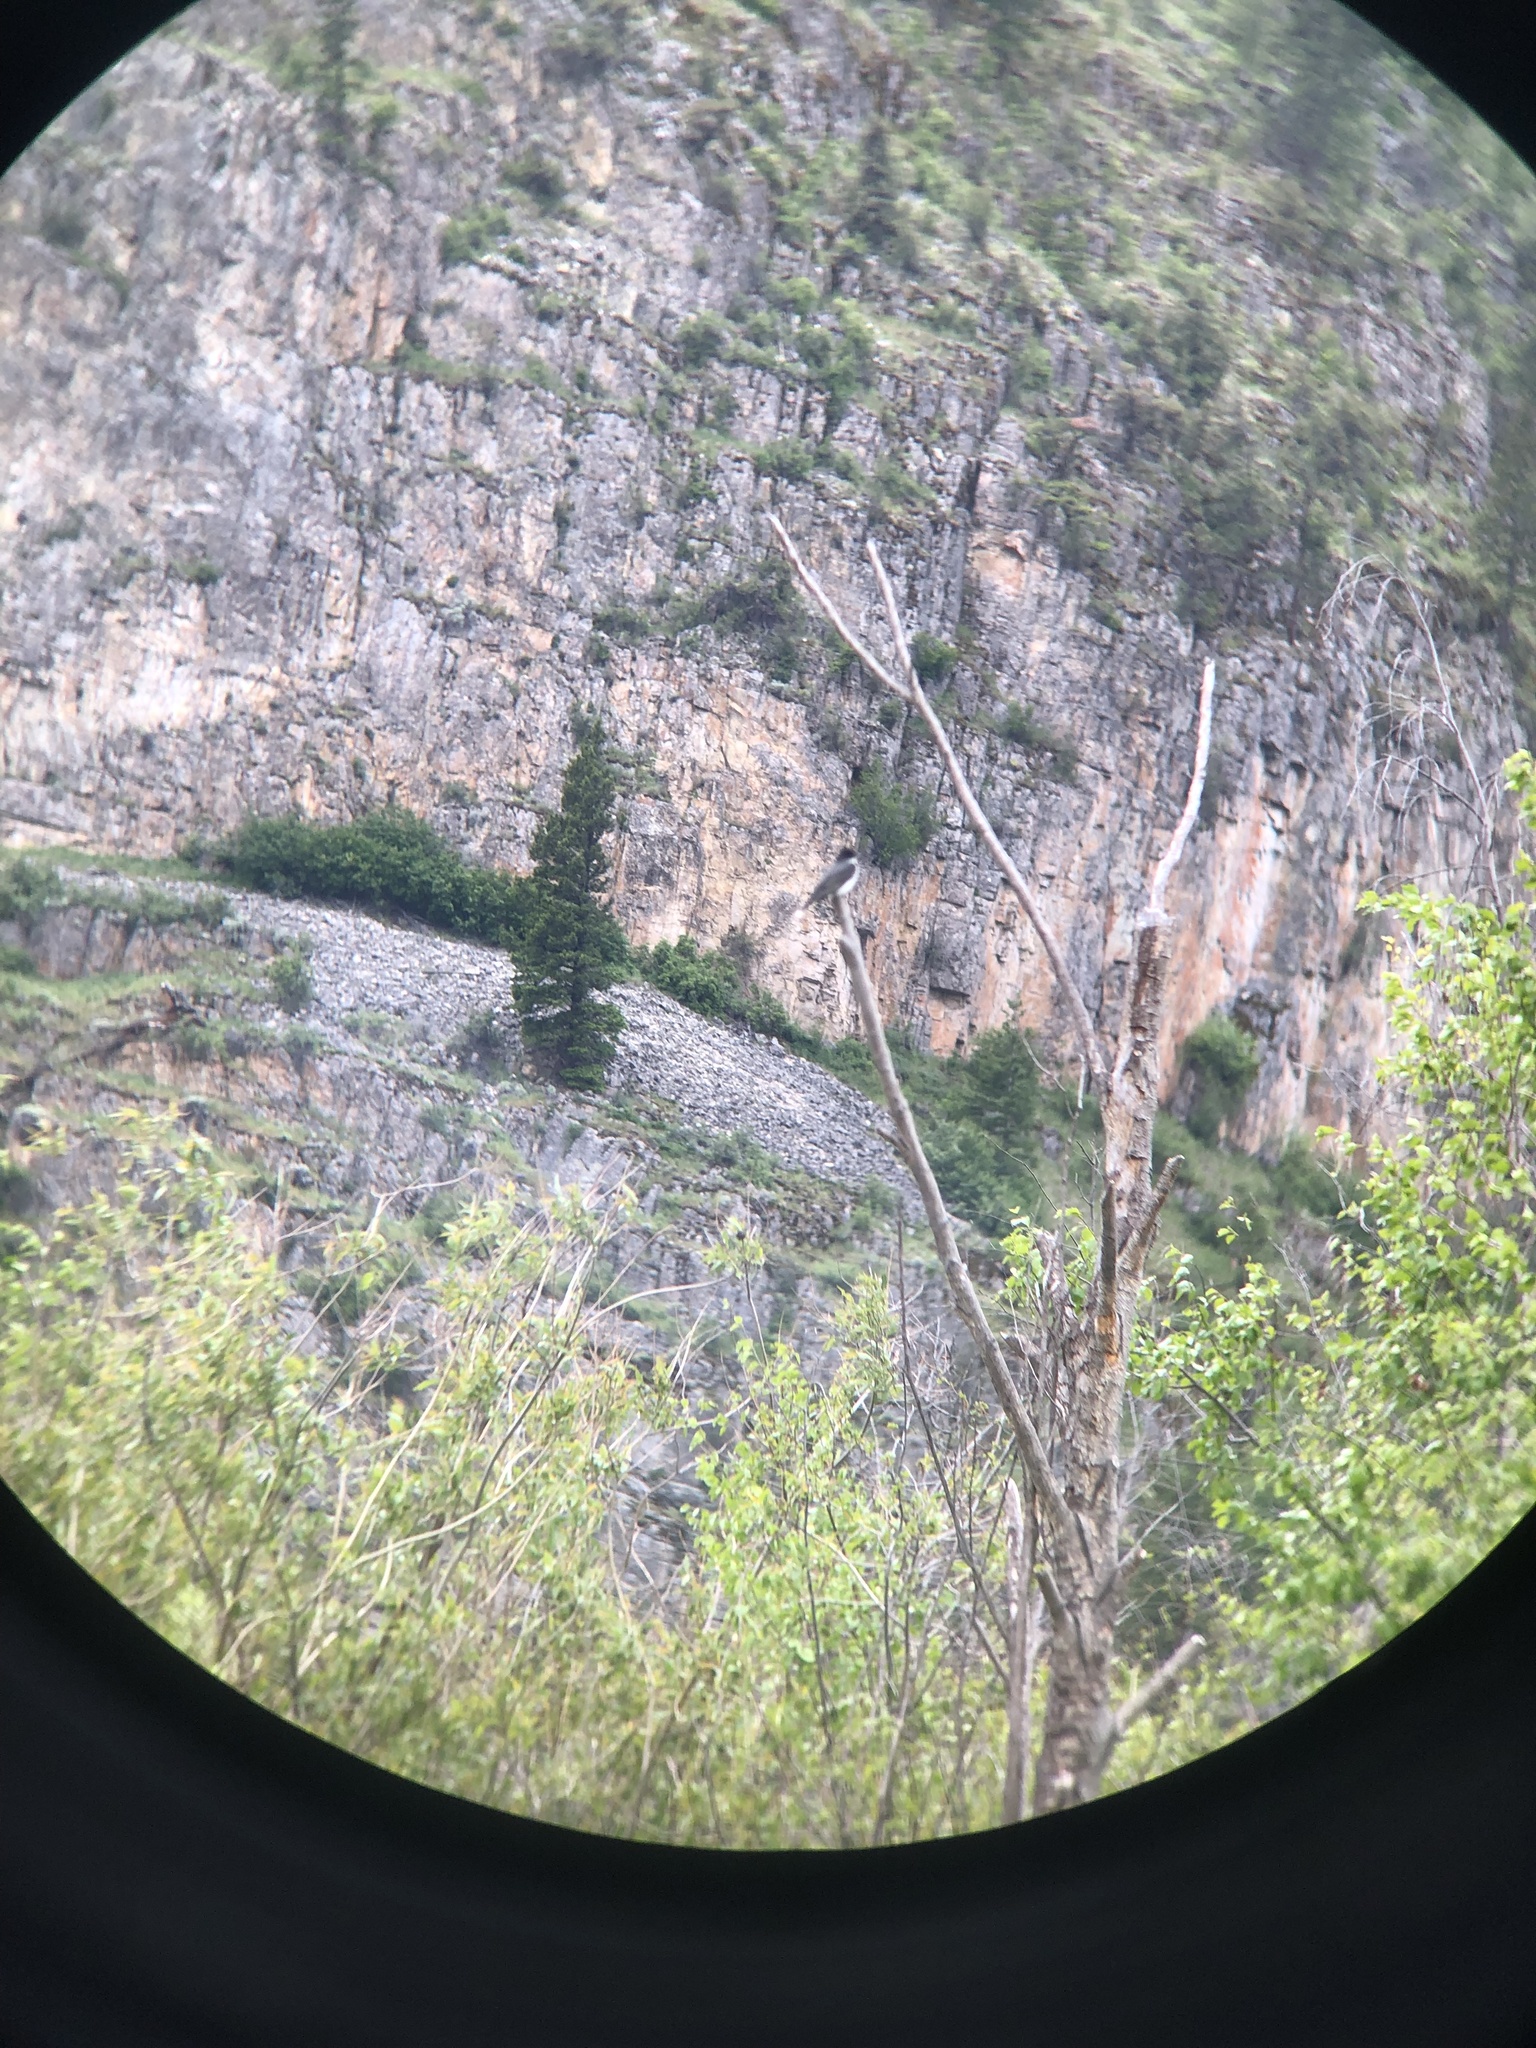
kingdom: Animalia
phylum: Chordata
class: Aves
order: Passeriformes
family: Tyrannidae
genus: Tyrannus
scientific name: Tyrannus tyrannus
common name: Eastern kingbird
